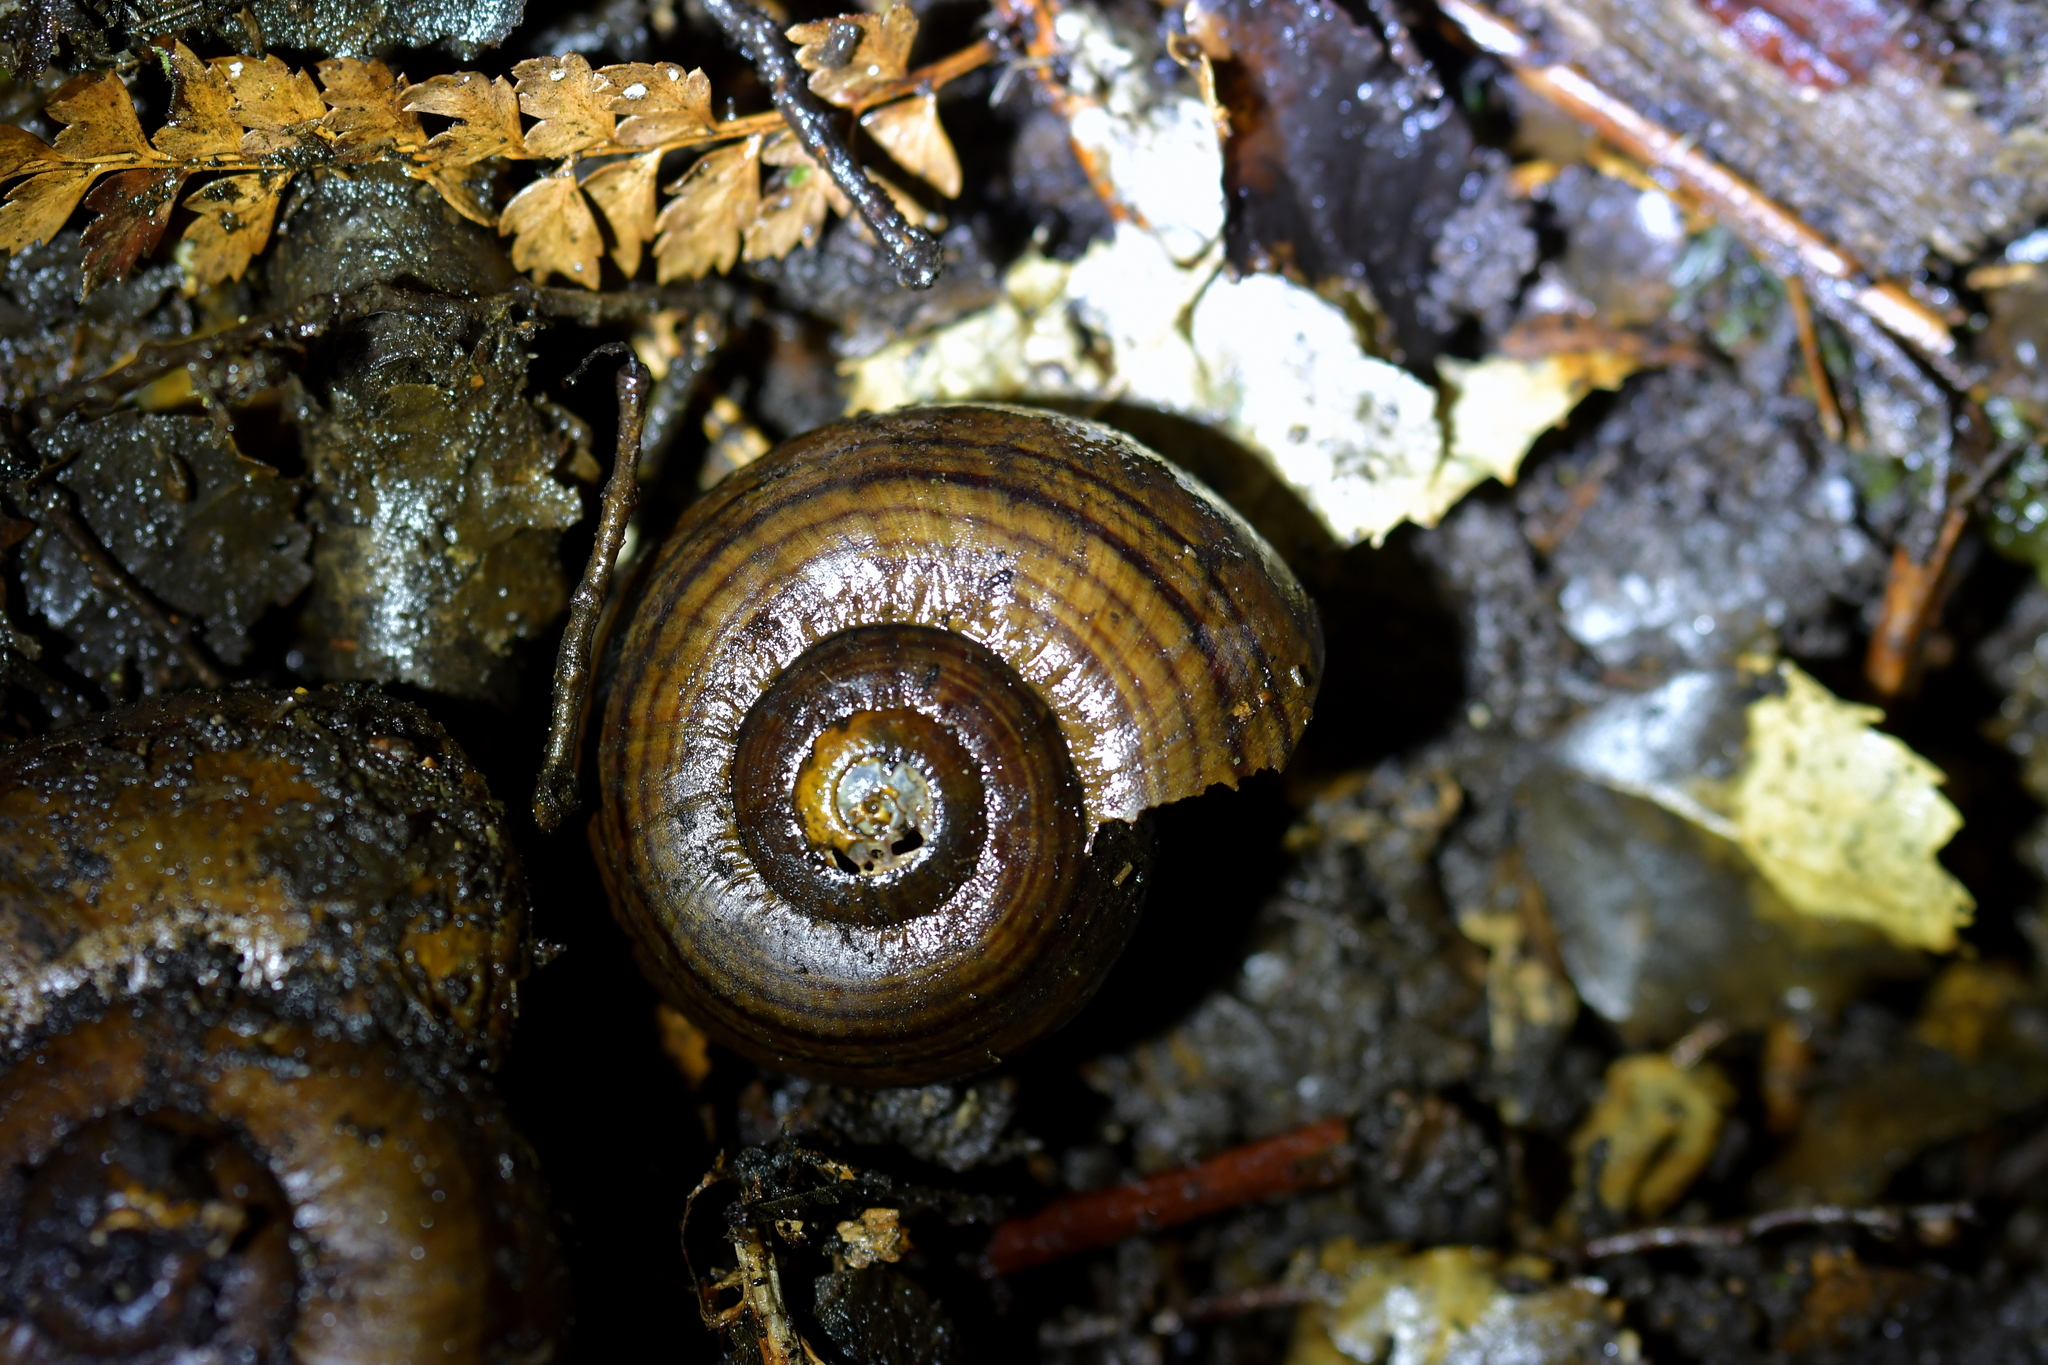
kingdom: Animalia
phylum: Mollusca
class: Gastropoda
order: Stylommatophora
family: Rhytididae
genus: Powelliphanta
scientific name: Powelliphanta hochstetteri
